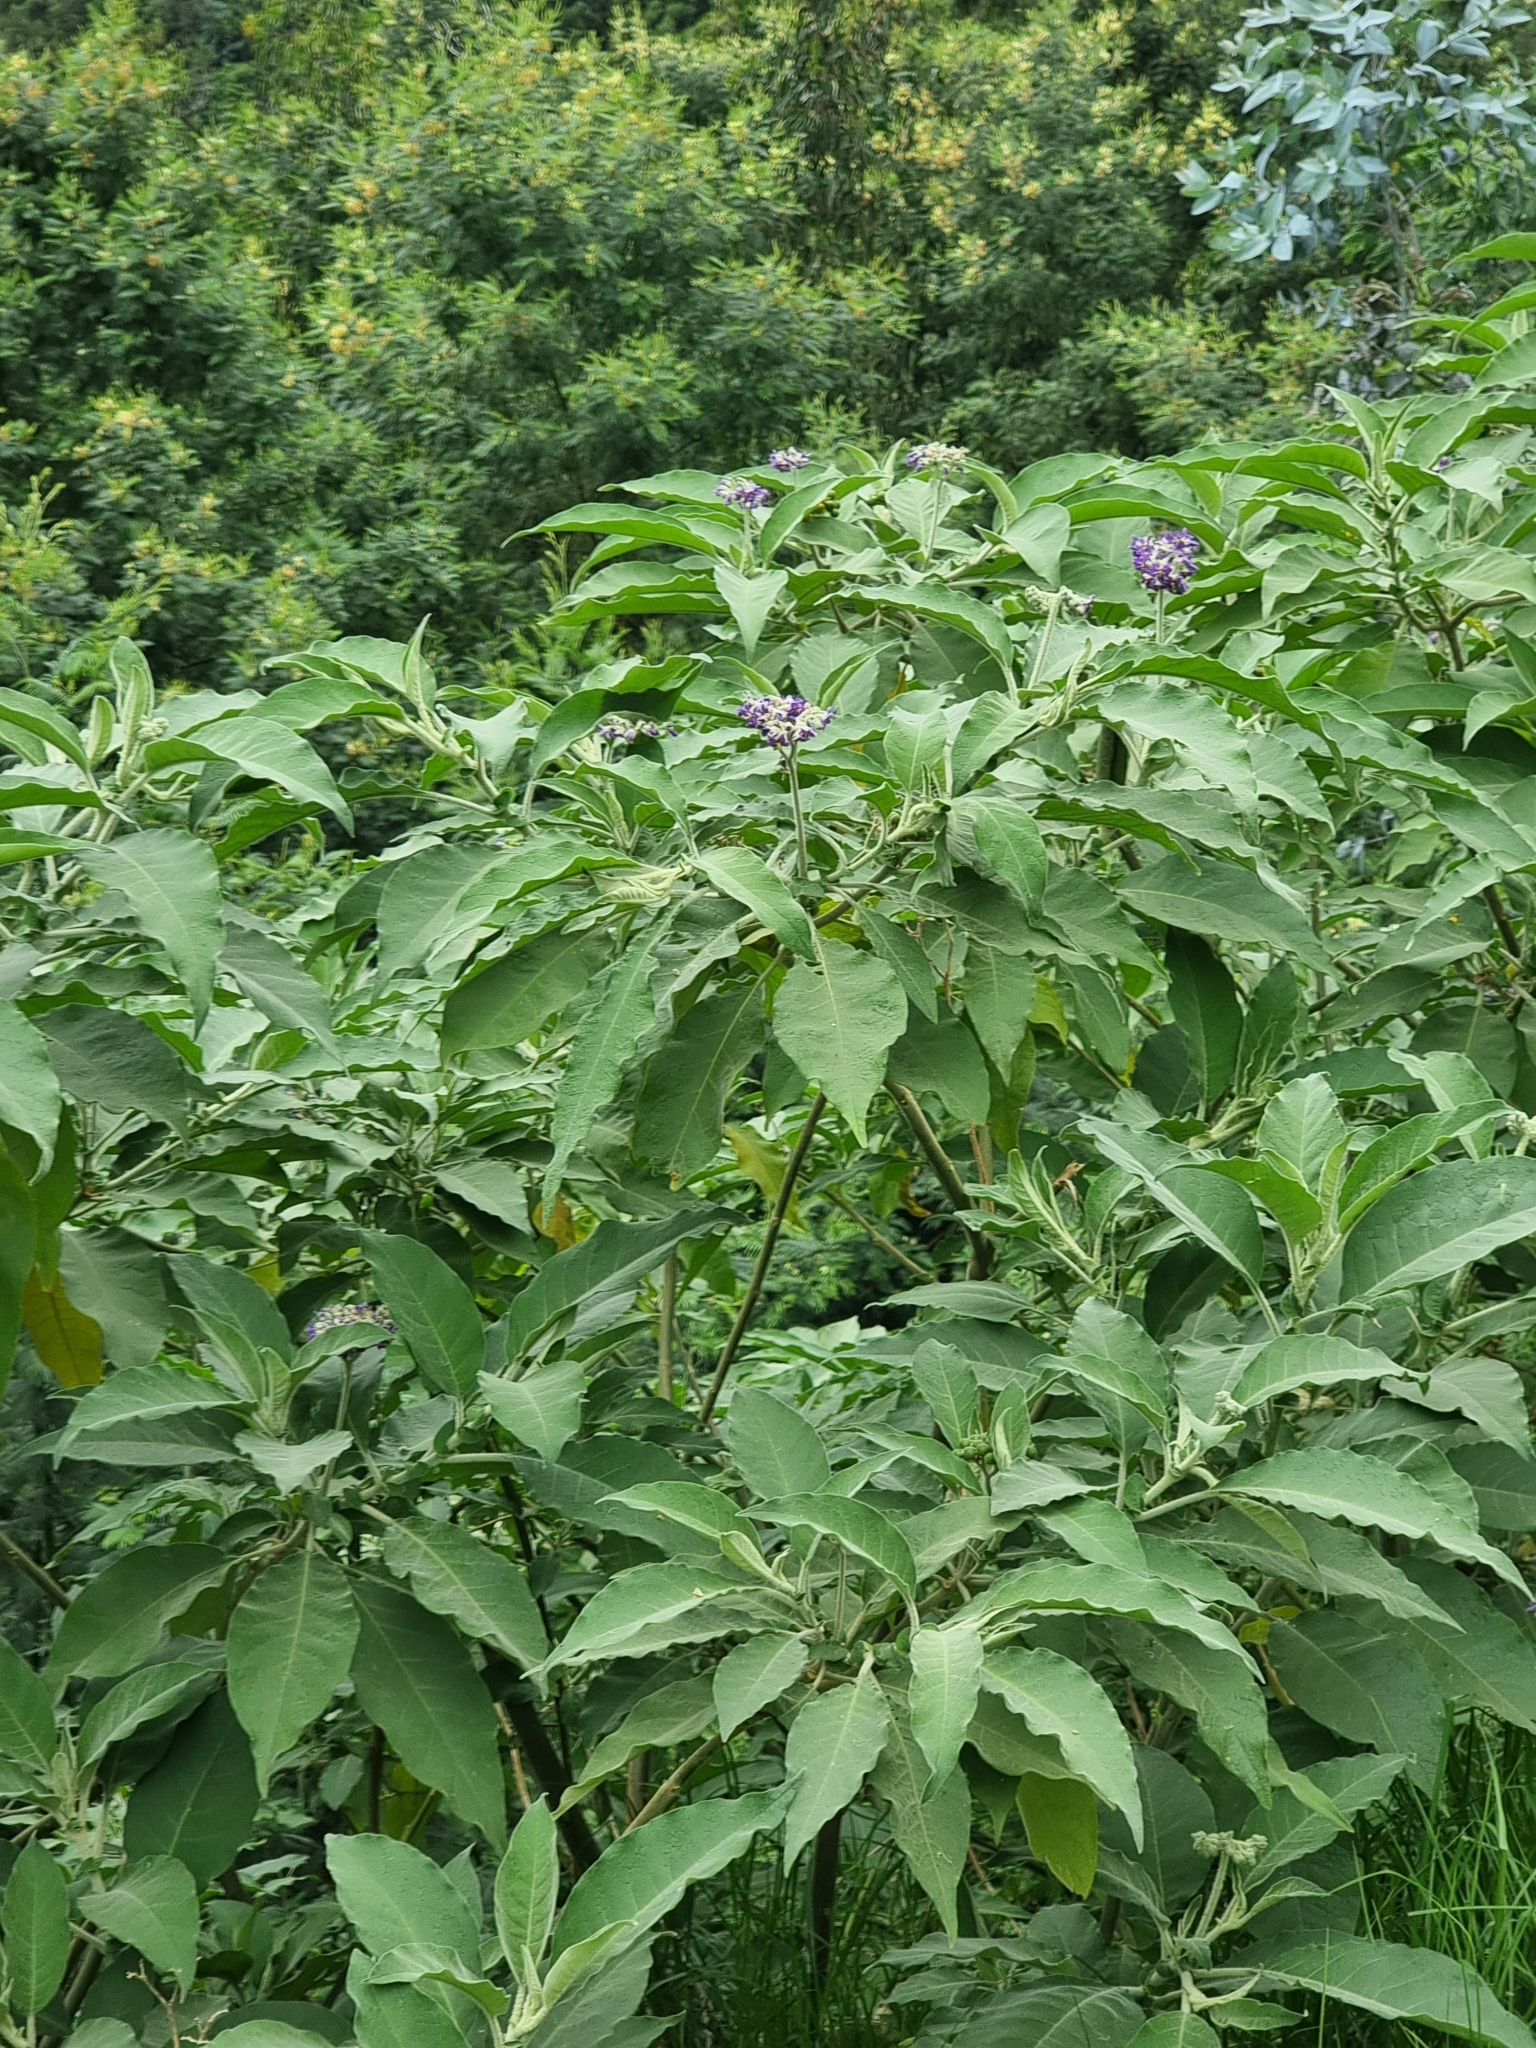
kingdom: Plantae
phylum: Tracheophyta
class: Magnoliopsida
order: Solanales
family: Solanaceae
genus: Solanum
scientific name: Solanum mauritianum
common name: Earleaf nightshade
